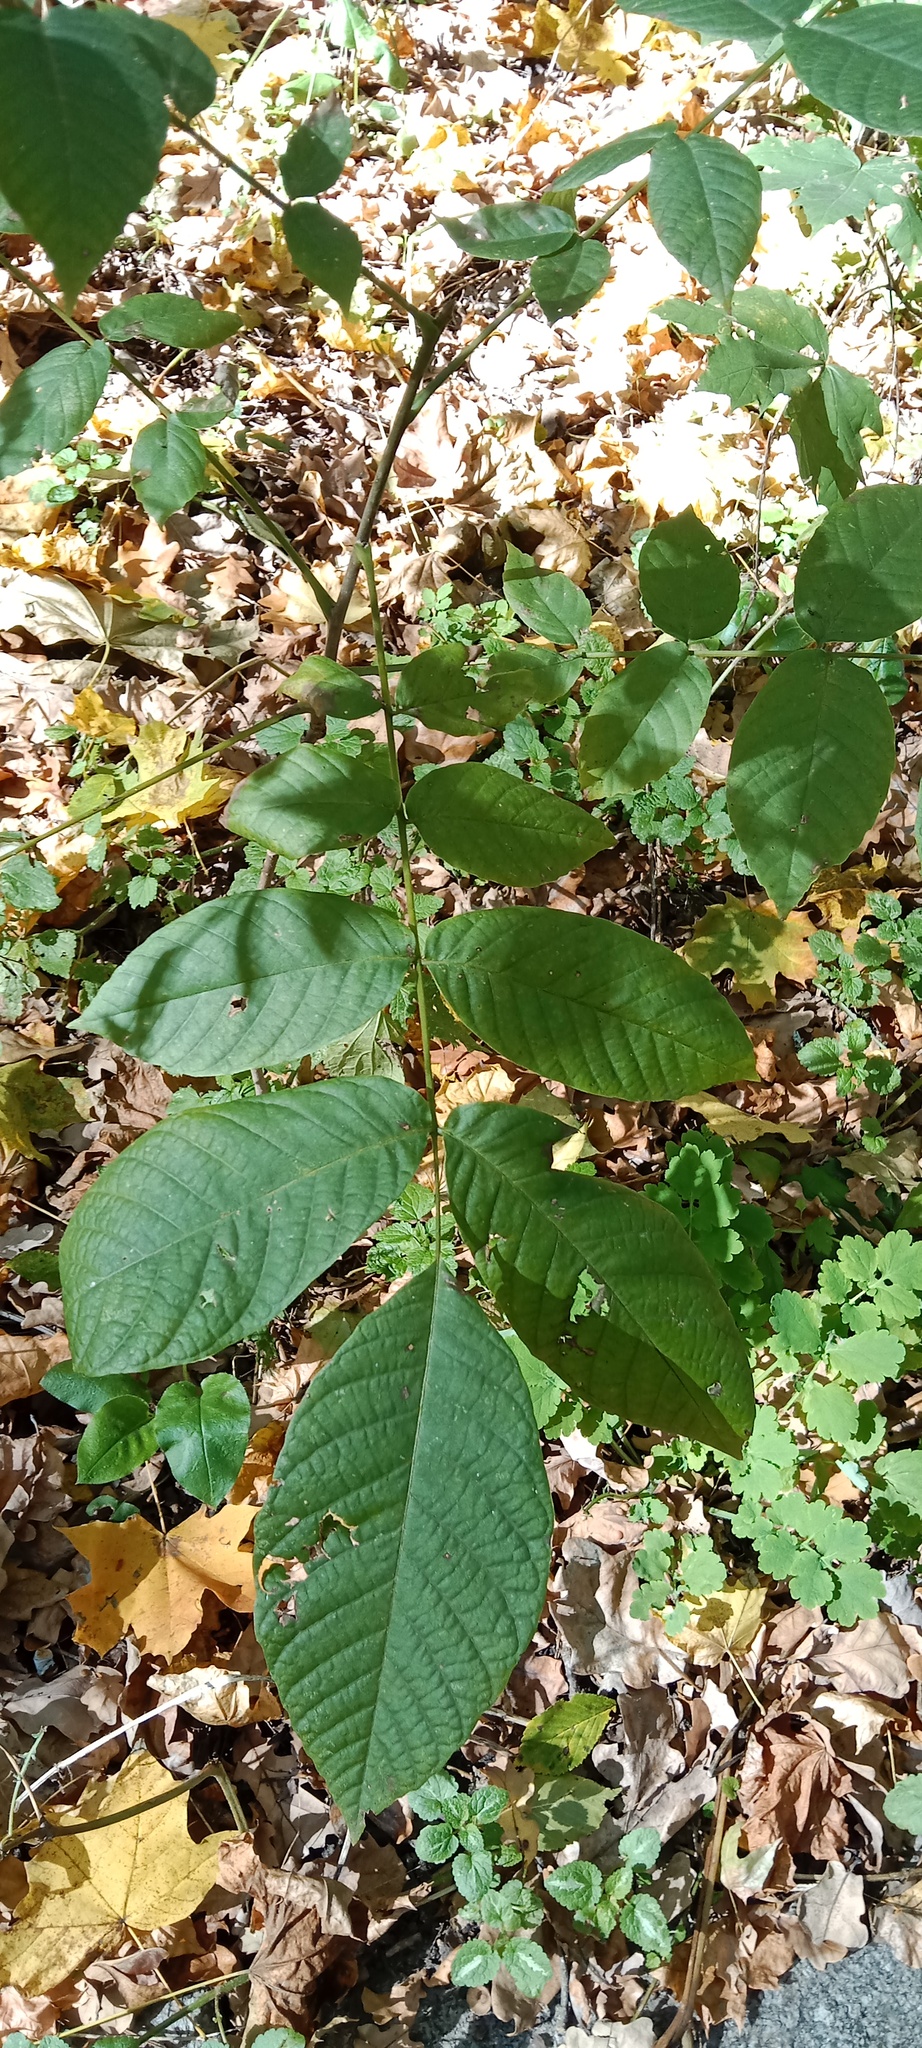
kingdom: Plantae
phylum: Tracheophyta
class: Magnoliopsida
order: Fagales
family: Juglandaceae
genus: Juglans
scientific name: Juglans regia
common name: Walnut
